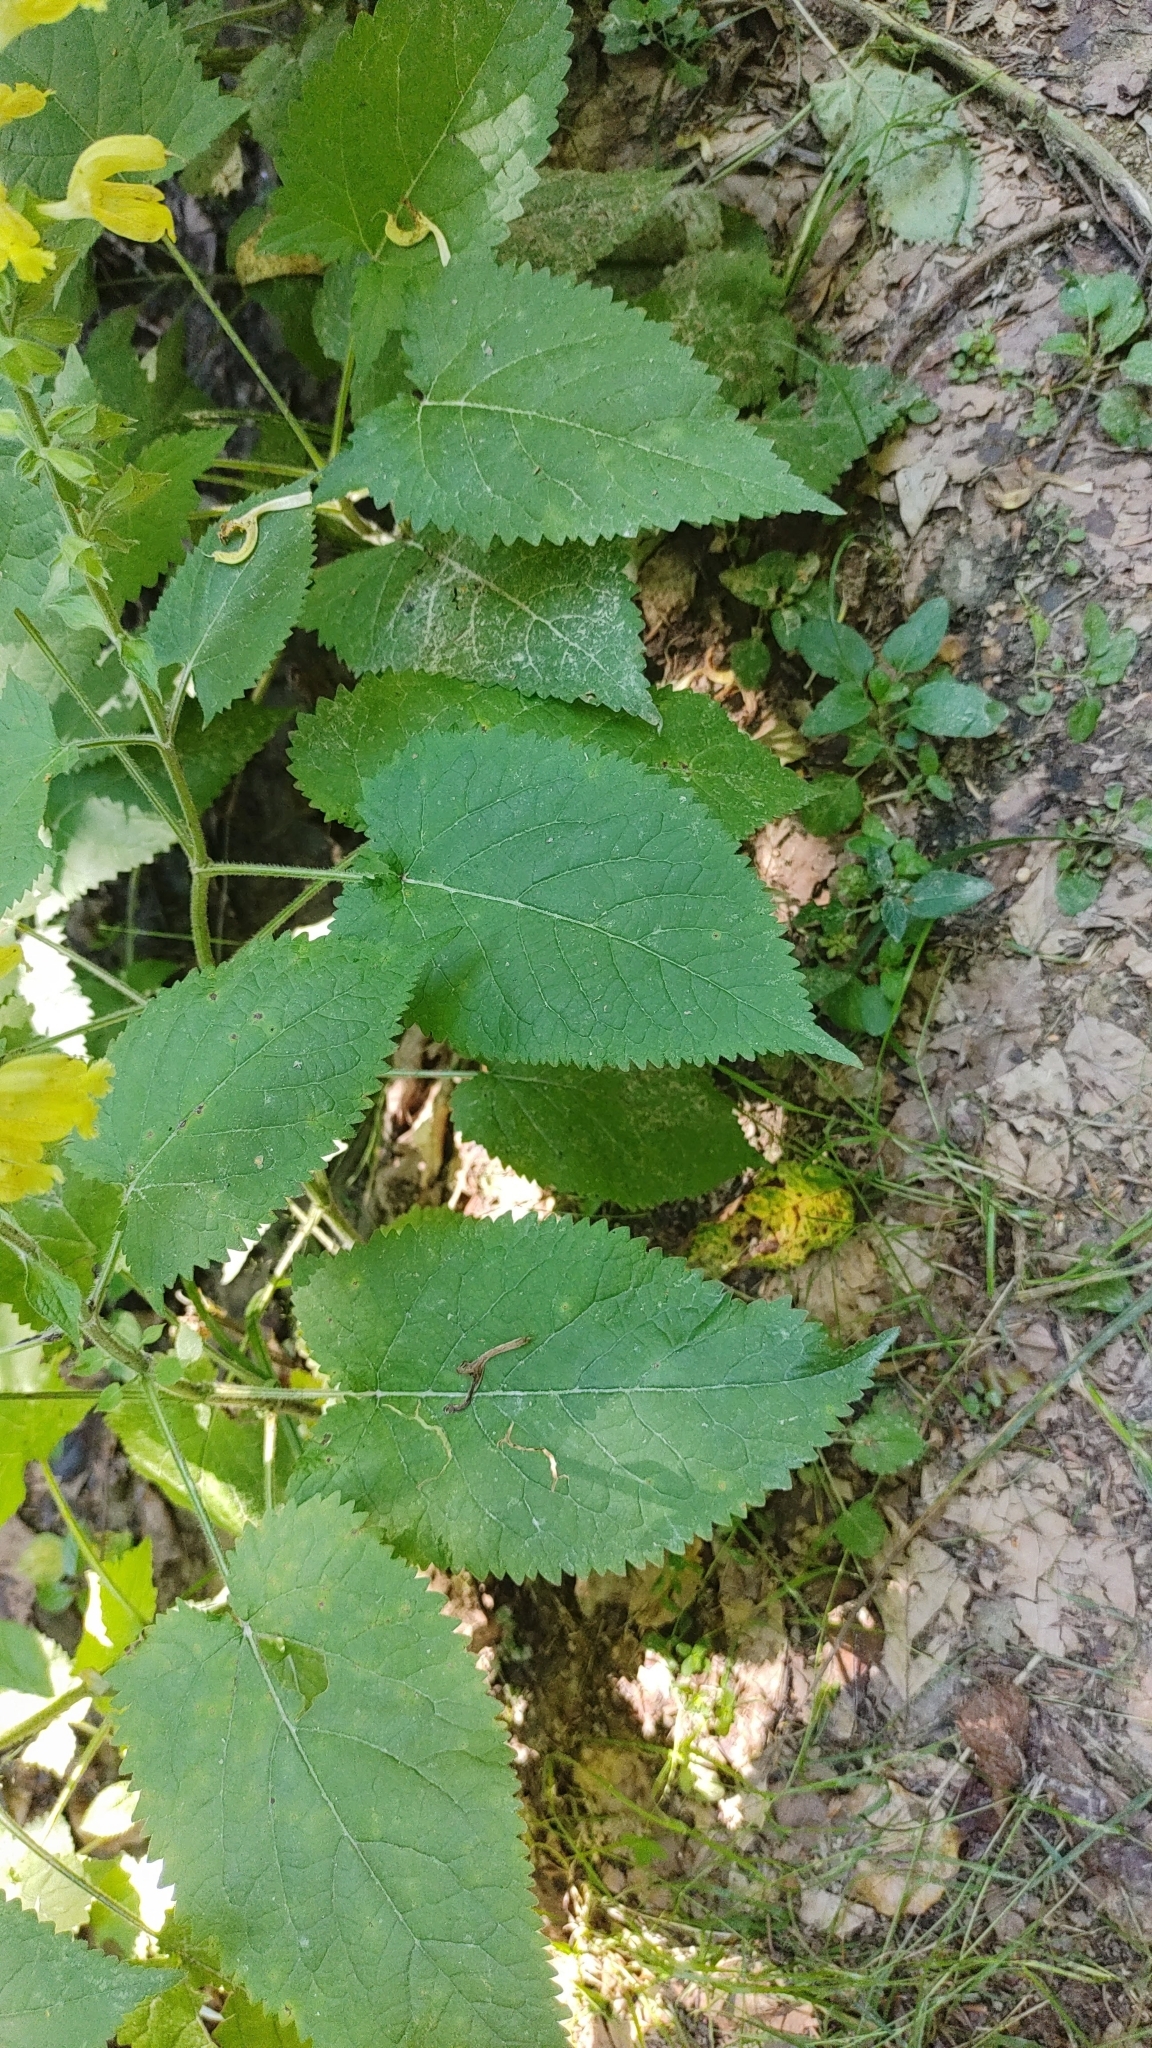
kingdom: Plantae
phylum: Tracheophyta
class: Magnoliopsida
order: Lamiales
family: Lamiaceae
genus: Salvia
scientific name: Salvia glutinosa
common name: Sticky clary
